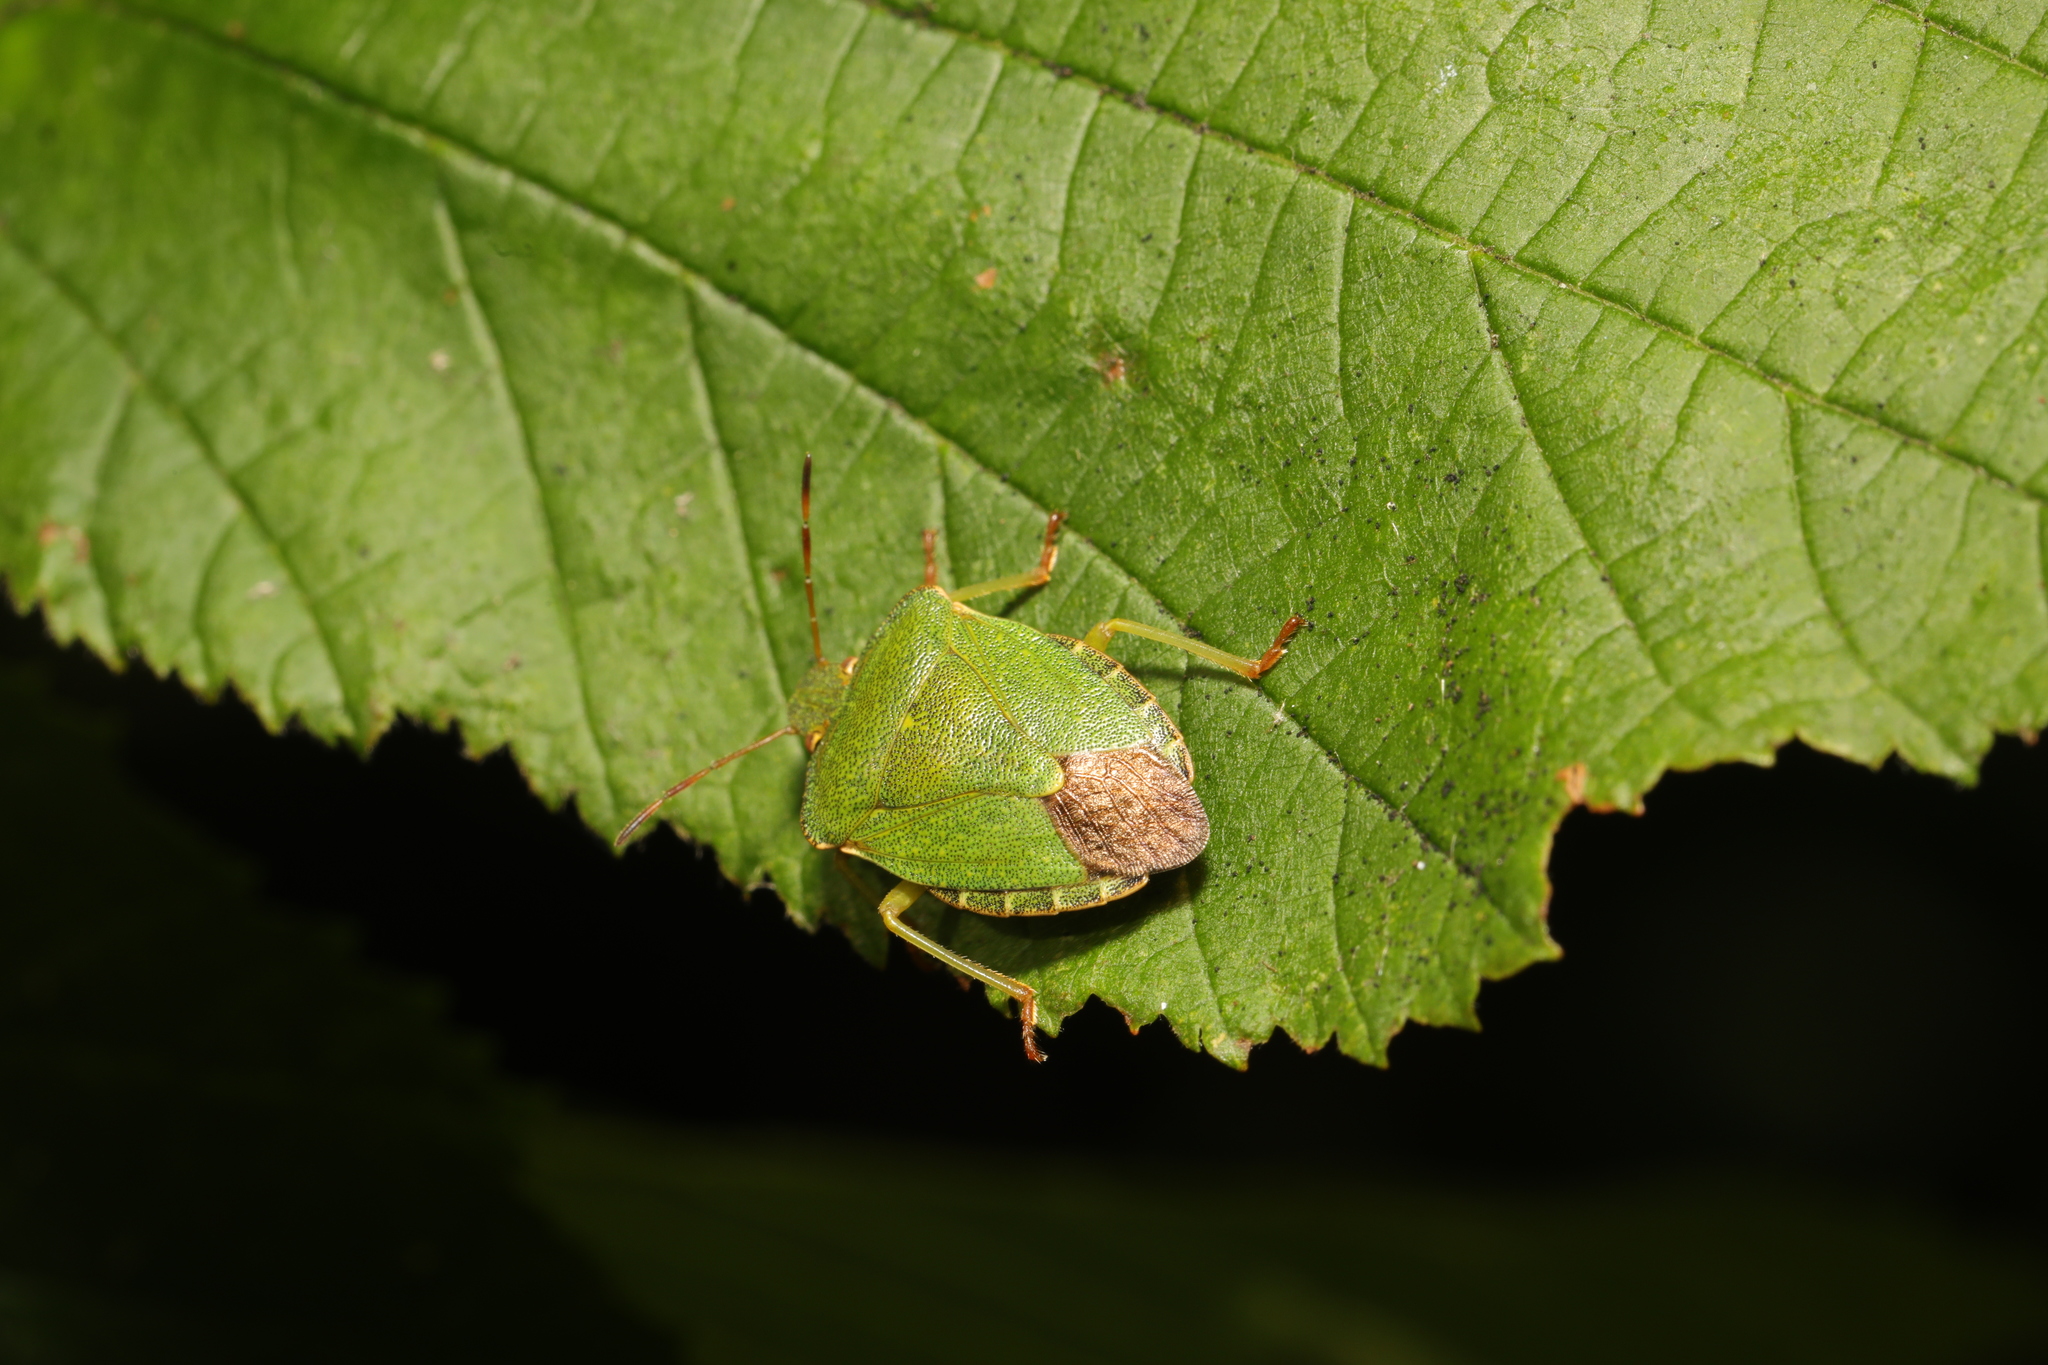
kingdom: Animalia
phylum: Arthropoda
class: Insecta
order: Hemiptera
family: Pentatomidae
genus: Palomena
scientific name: Palomena prasina
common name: Green shieldbug
